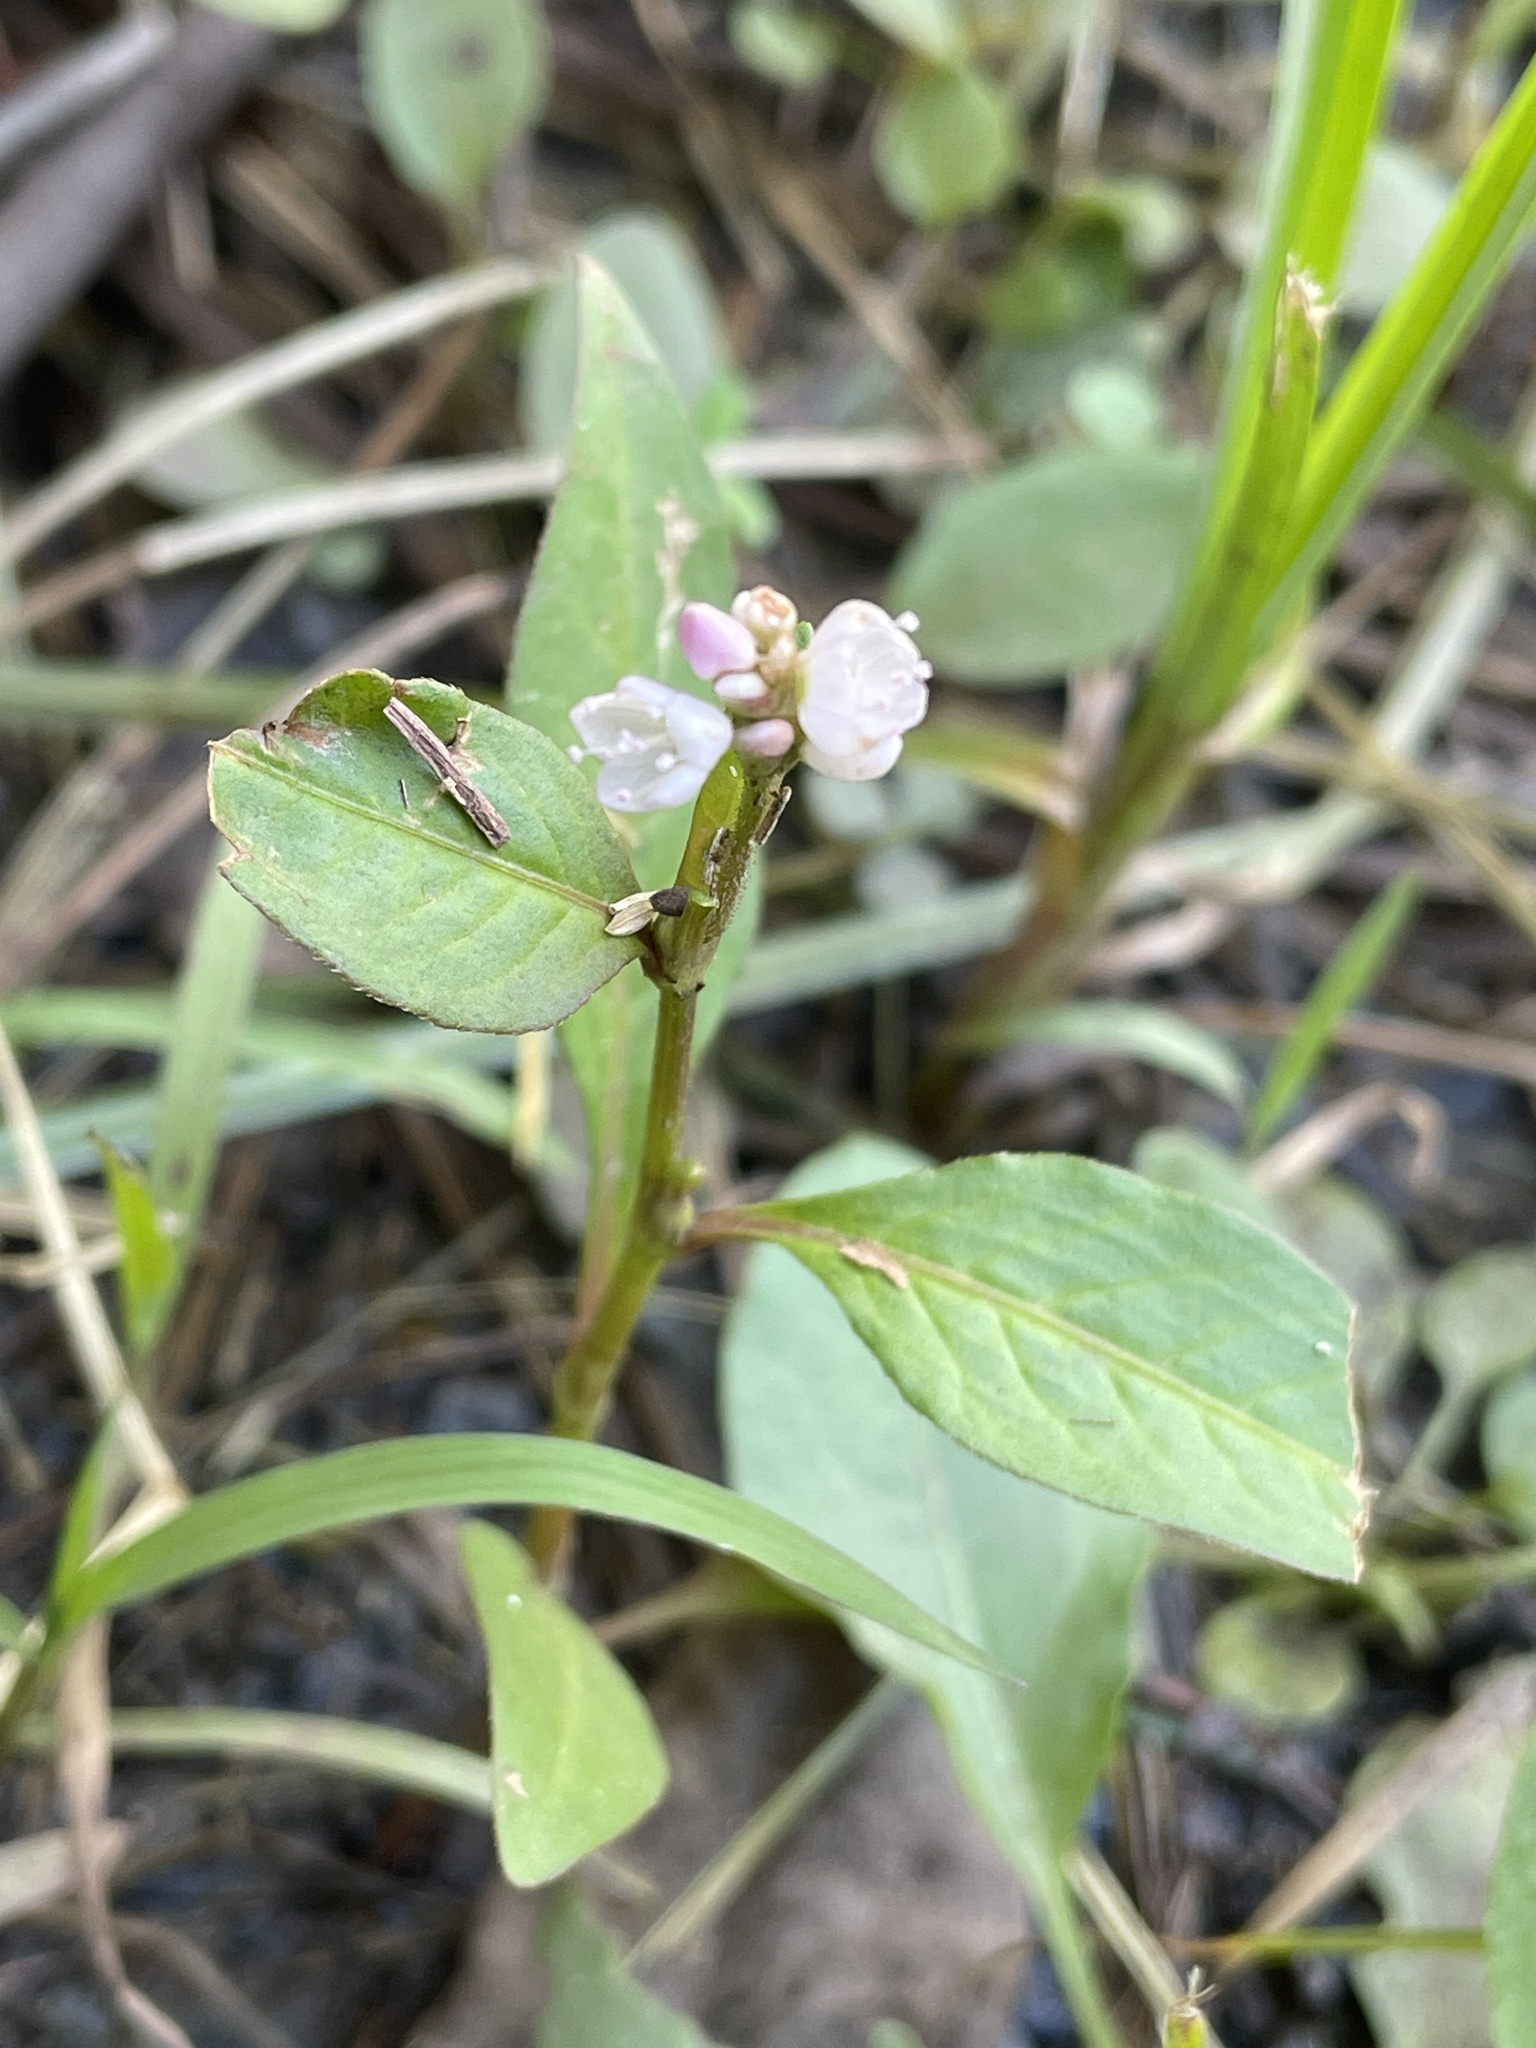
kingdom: Plantae
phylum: Tracheophyta
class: Magnoliopsida
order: Caryophyllales
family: Polygonaceae
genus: Persicaria
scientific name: Persicaria pensylvanica
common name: Pinkweed
